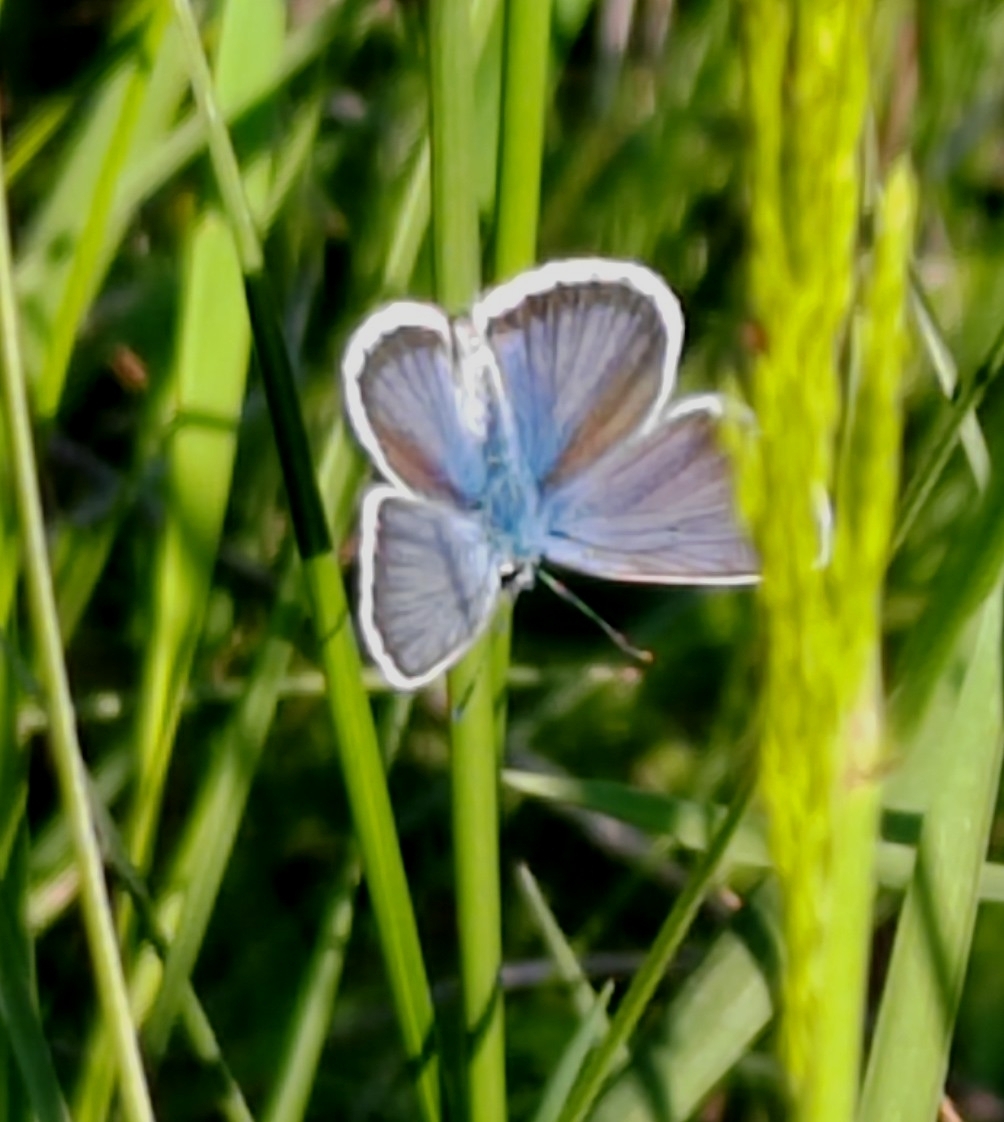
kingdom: Animalia
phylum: Arthropoda
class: Insecta
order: Lepidoptera
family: Lycaenidae
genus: Plebejus
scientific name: Plebejus argus
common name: Silver-studded blue
